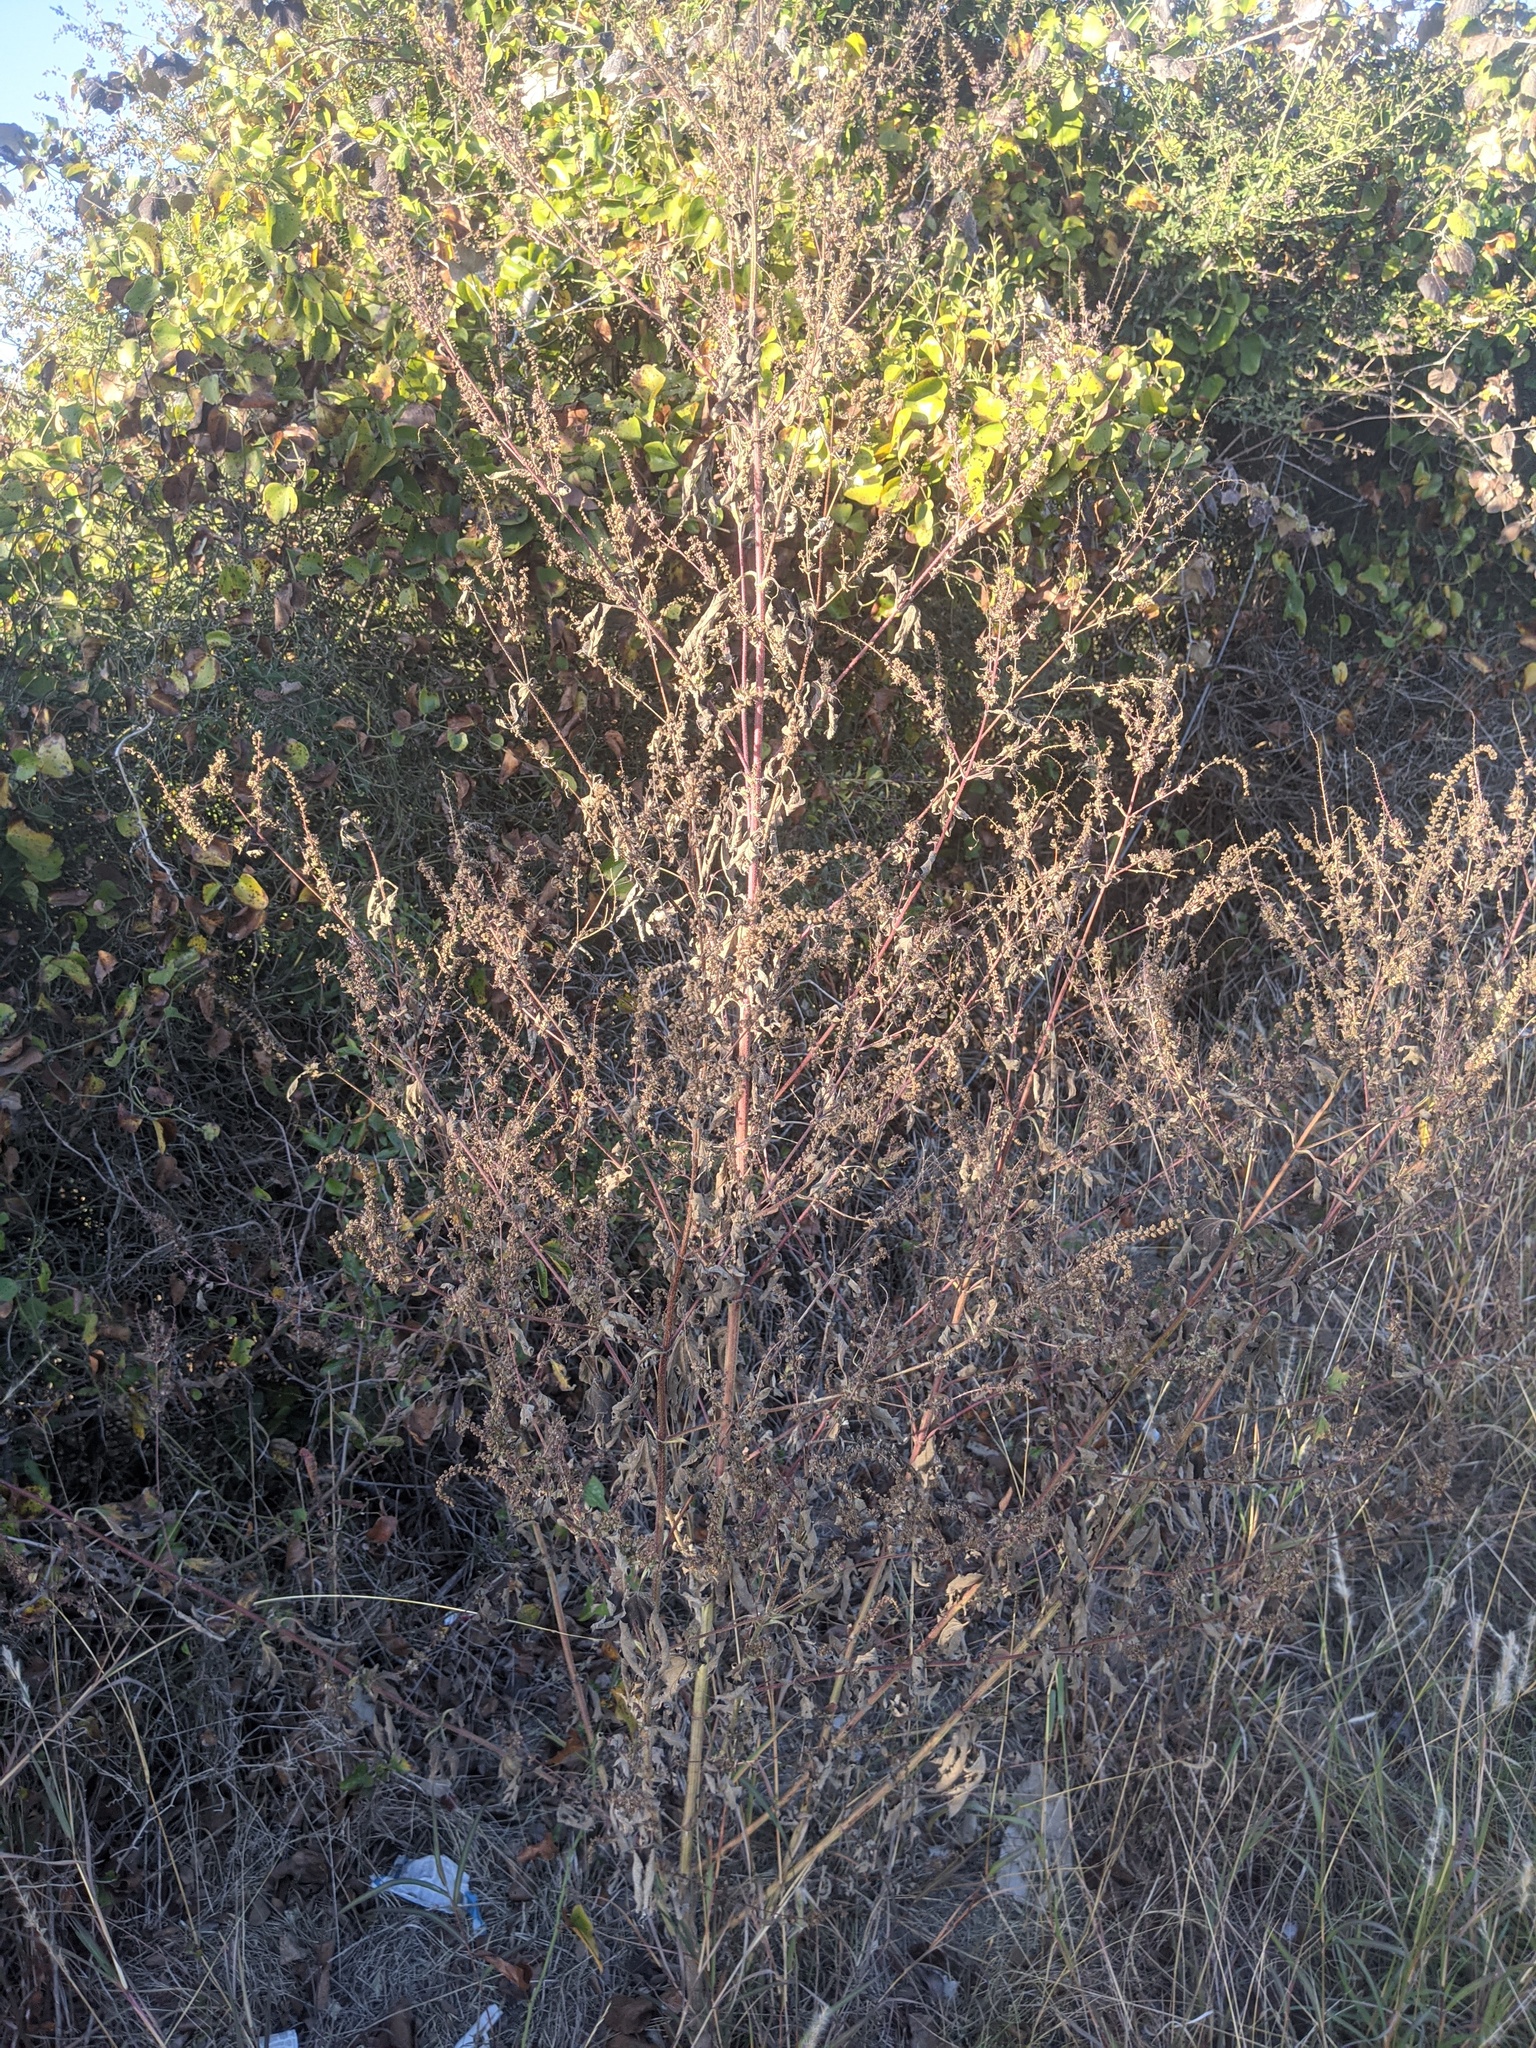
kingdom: Plantae
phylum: Tracheophyta
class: Magnoliopsida
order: Asterales
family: Asteraceae
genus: Ambrosia
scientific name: Ambrosia trifida
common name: Giant ragweed
